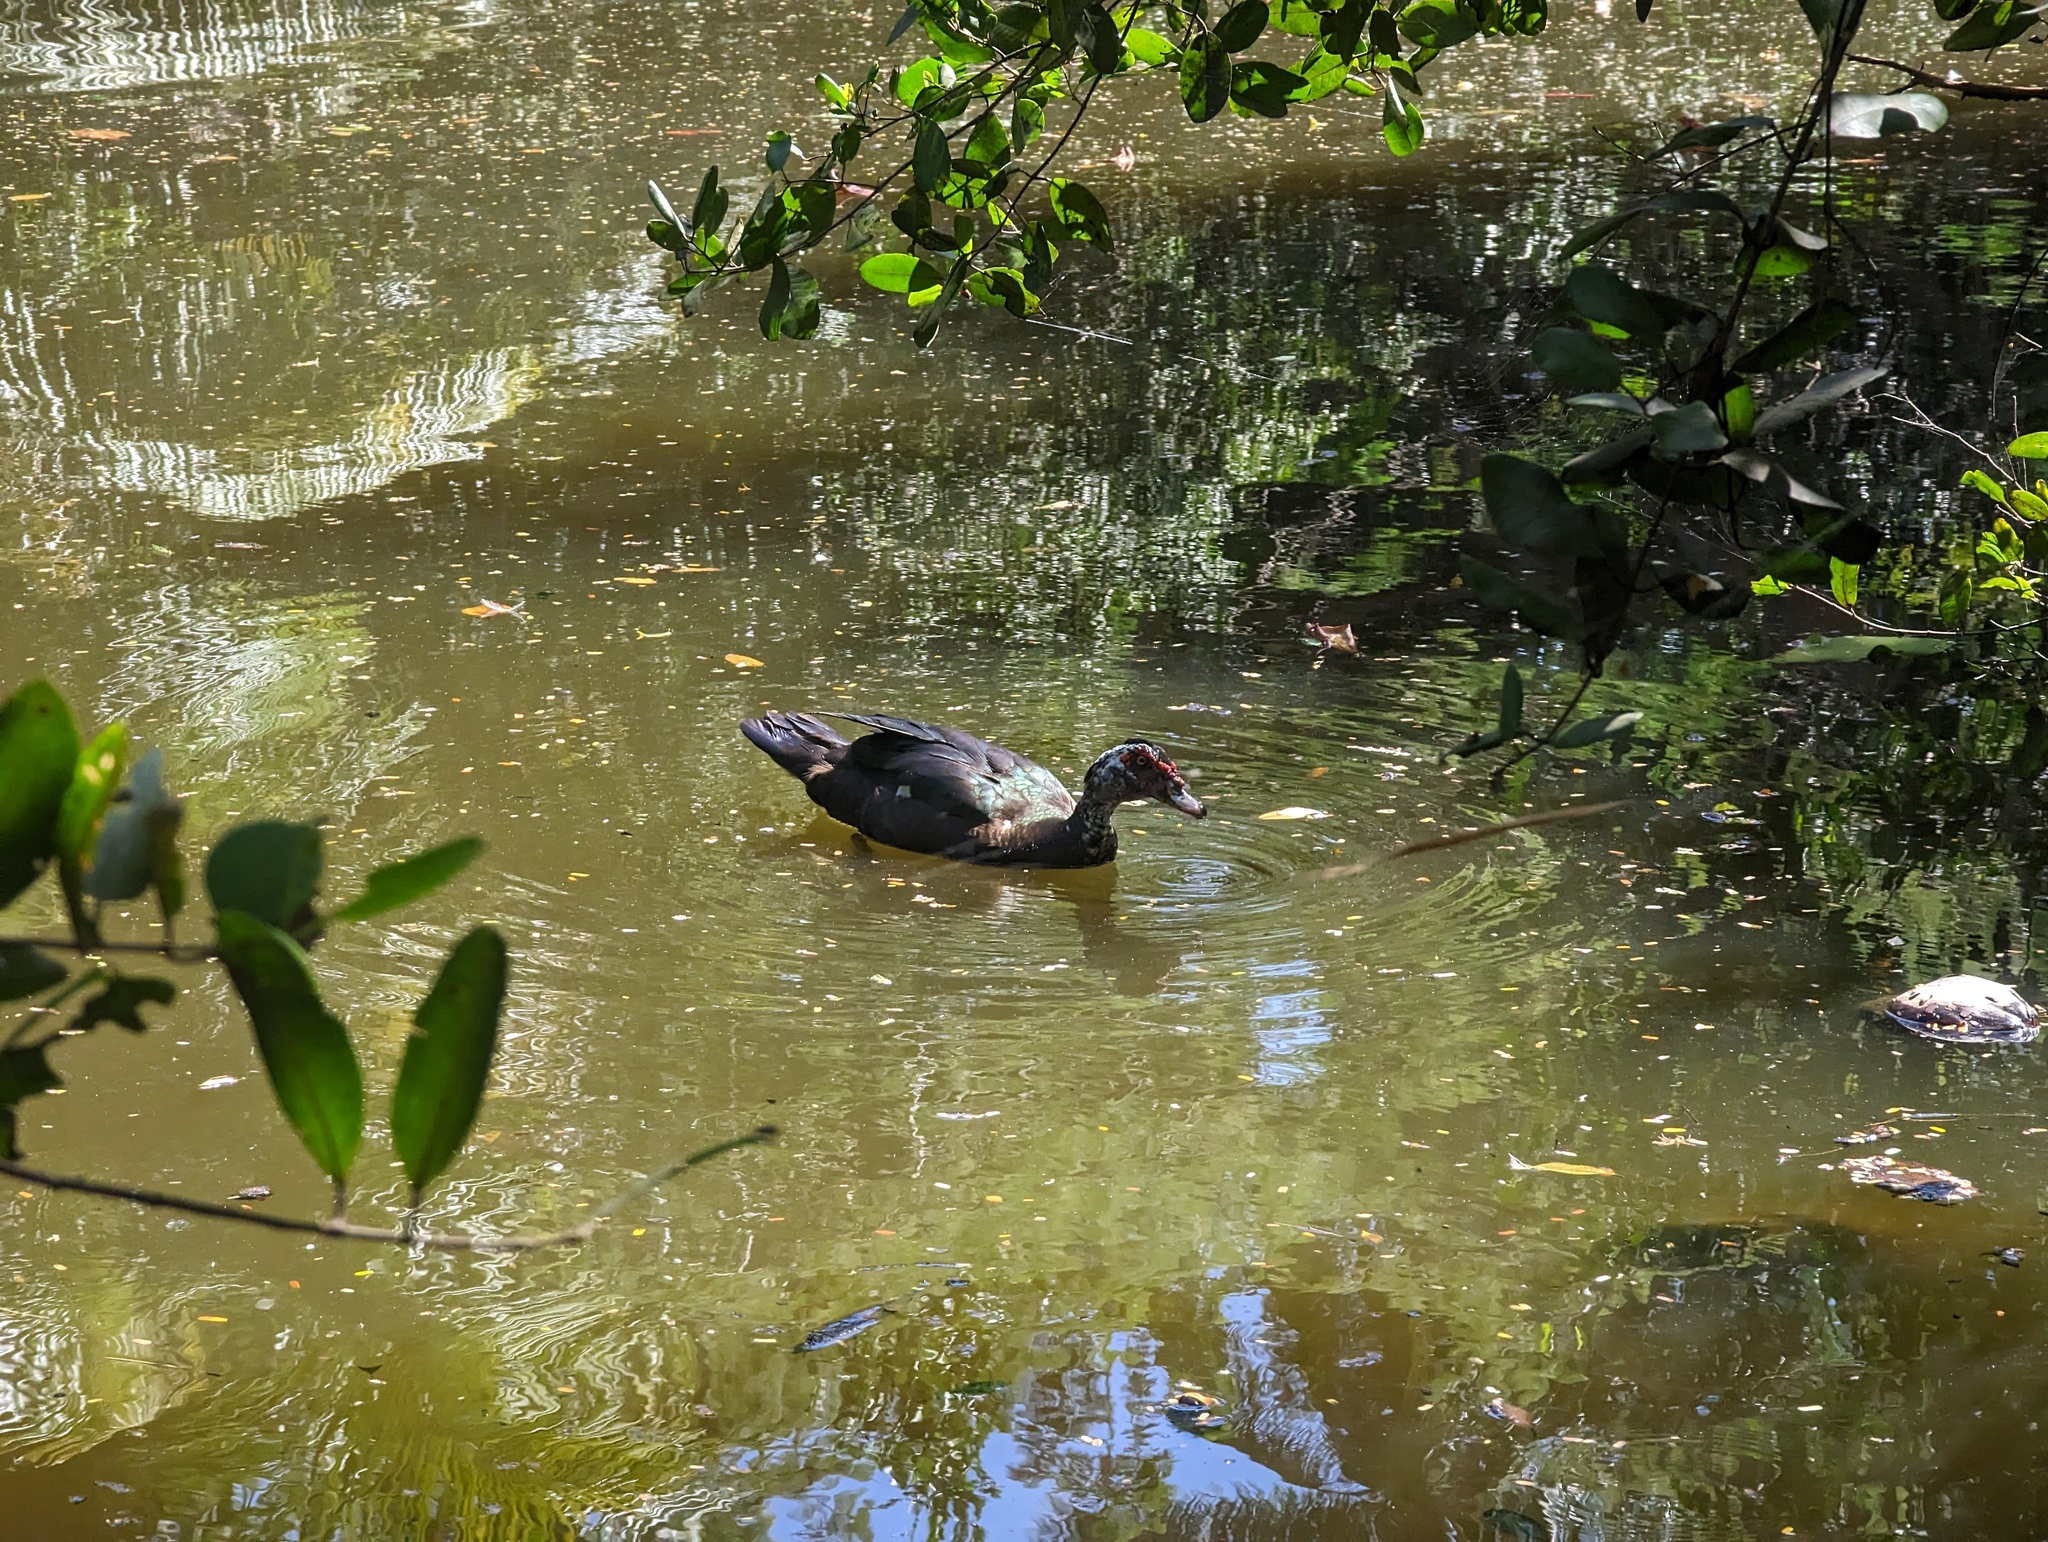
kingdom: Animalia
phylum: Chordata
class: Aves
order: Anseriformes
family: Anatidae
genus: Cairina
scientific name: Cairina moschata
